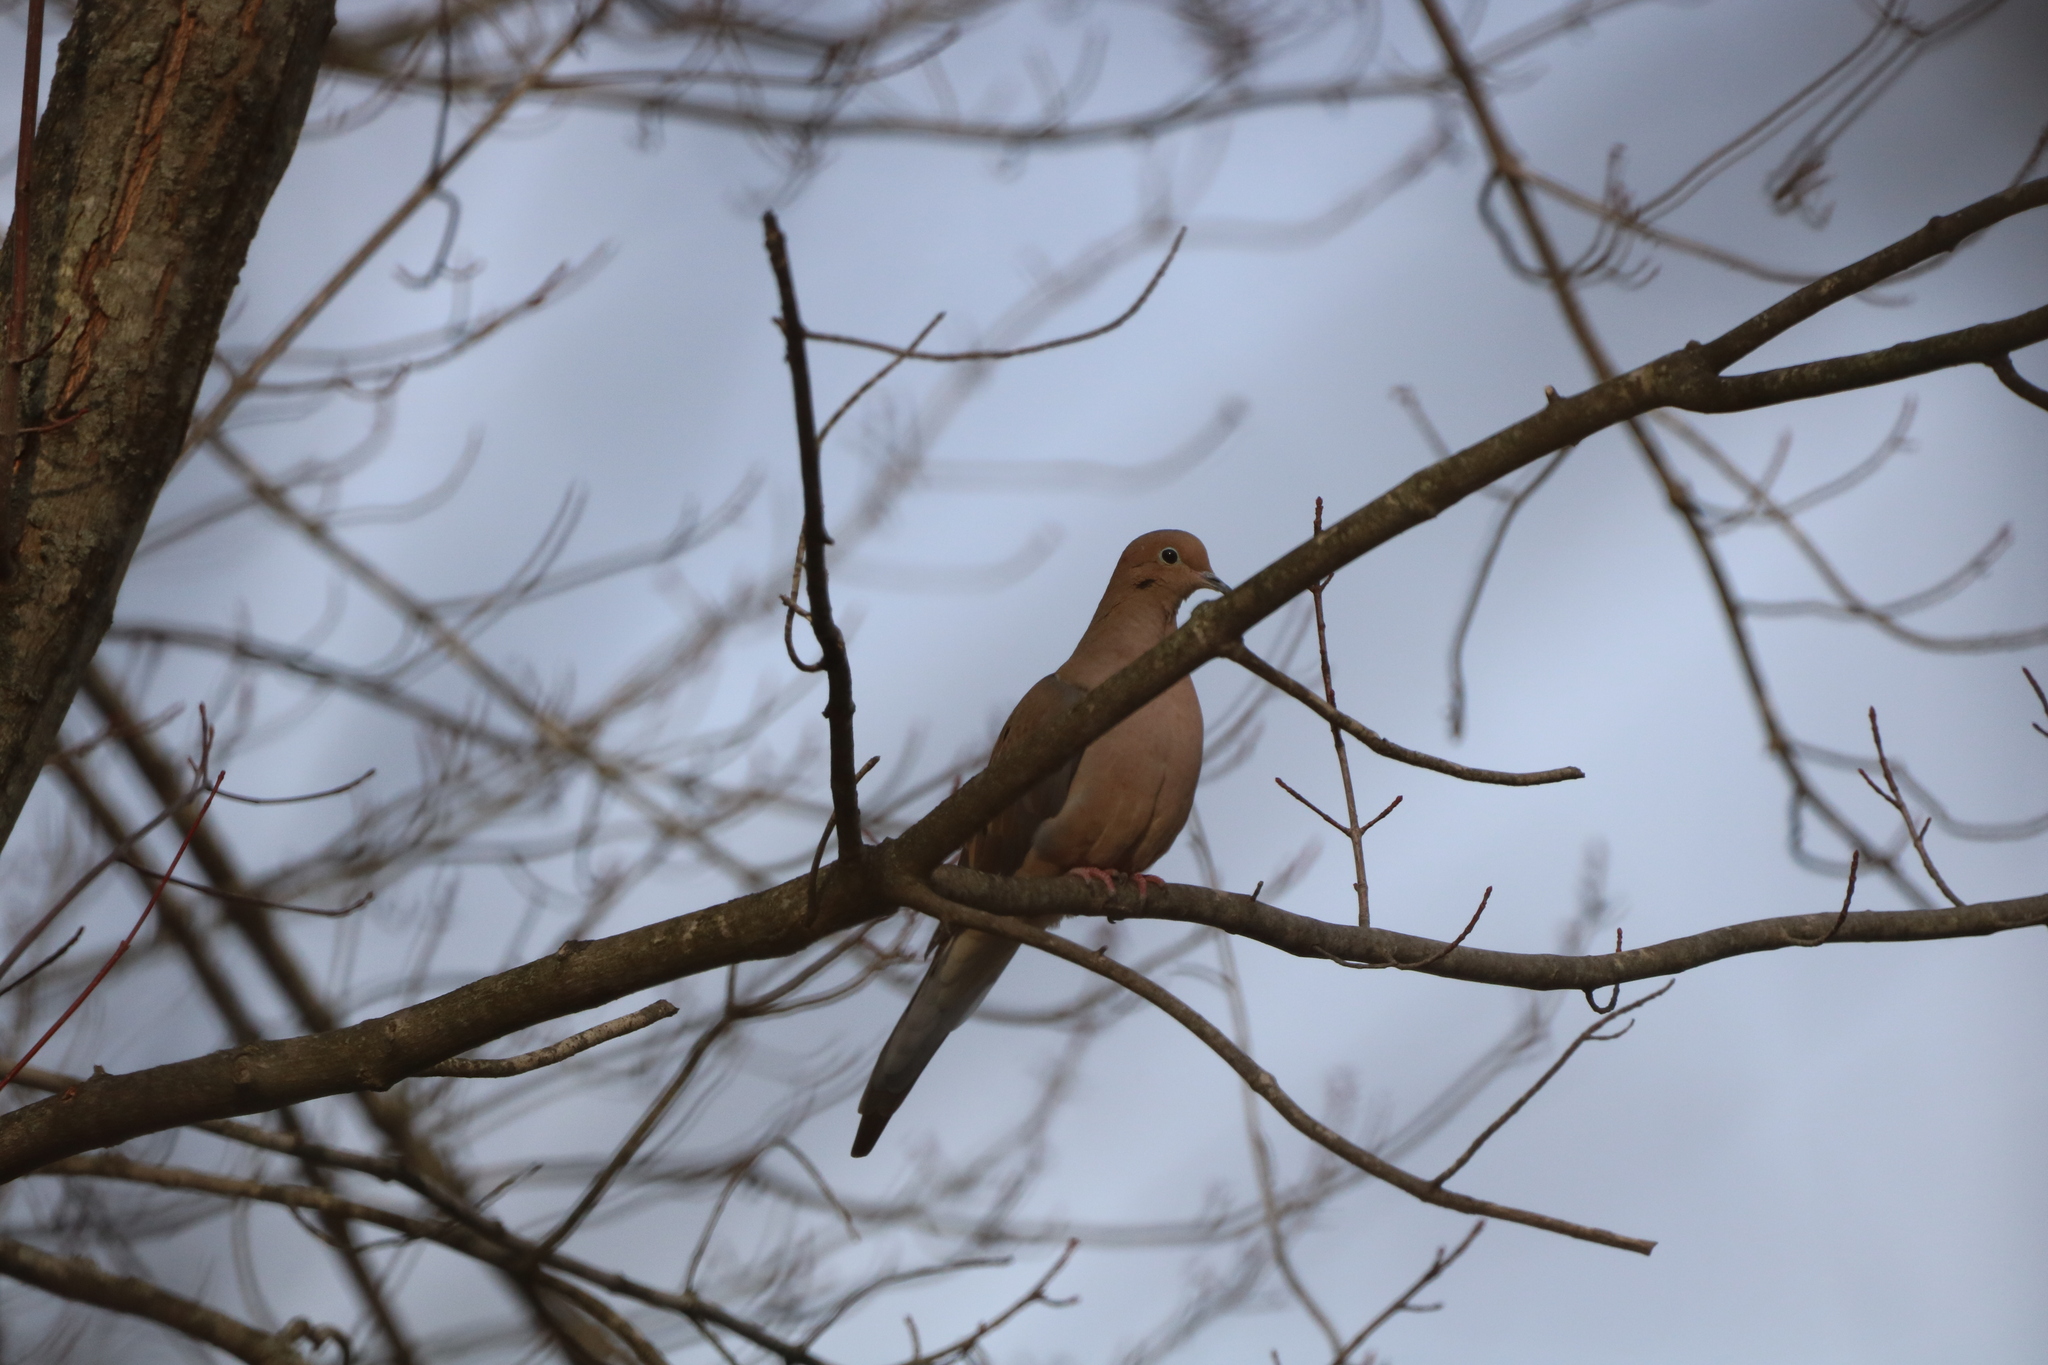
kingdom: Animalia
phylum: Chordata
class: Aves
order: Columbiformes
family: Columbidae
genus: Zenaida
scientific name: Zenaida macroura
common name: Mourning dove
